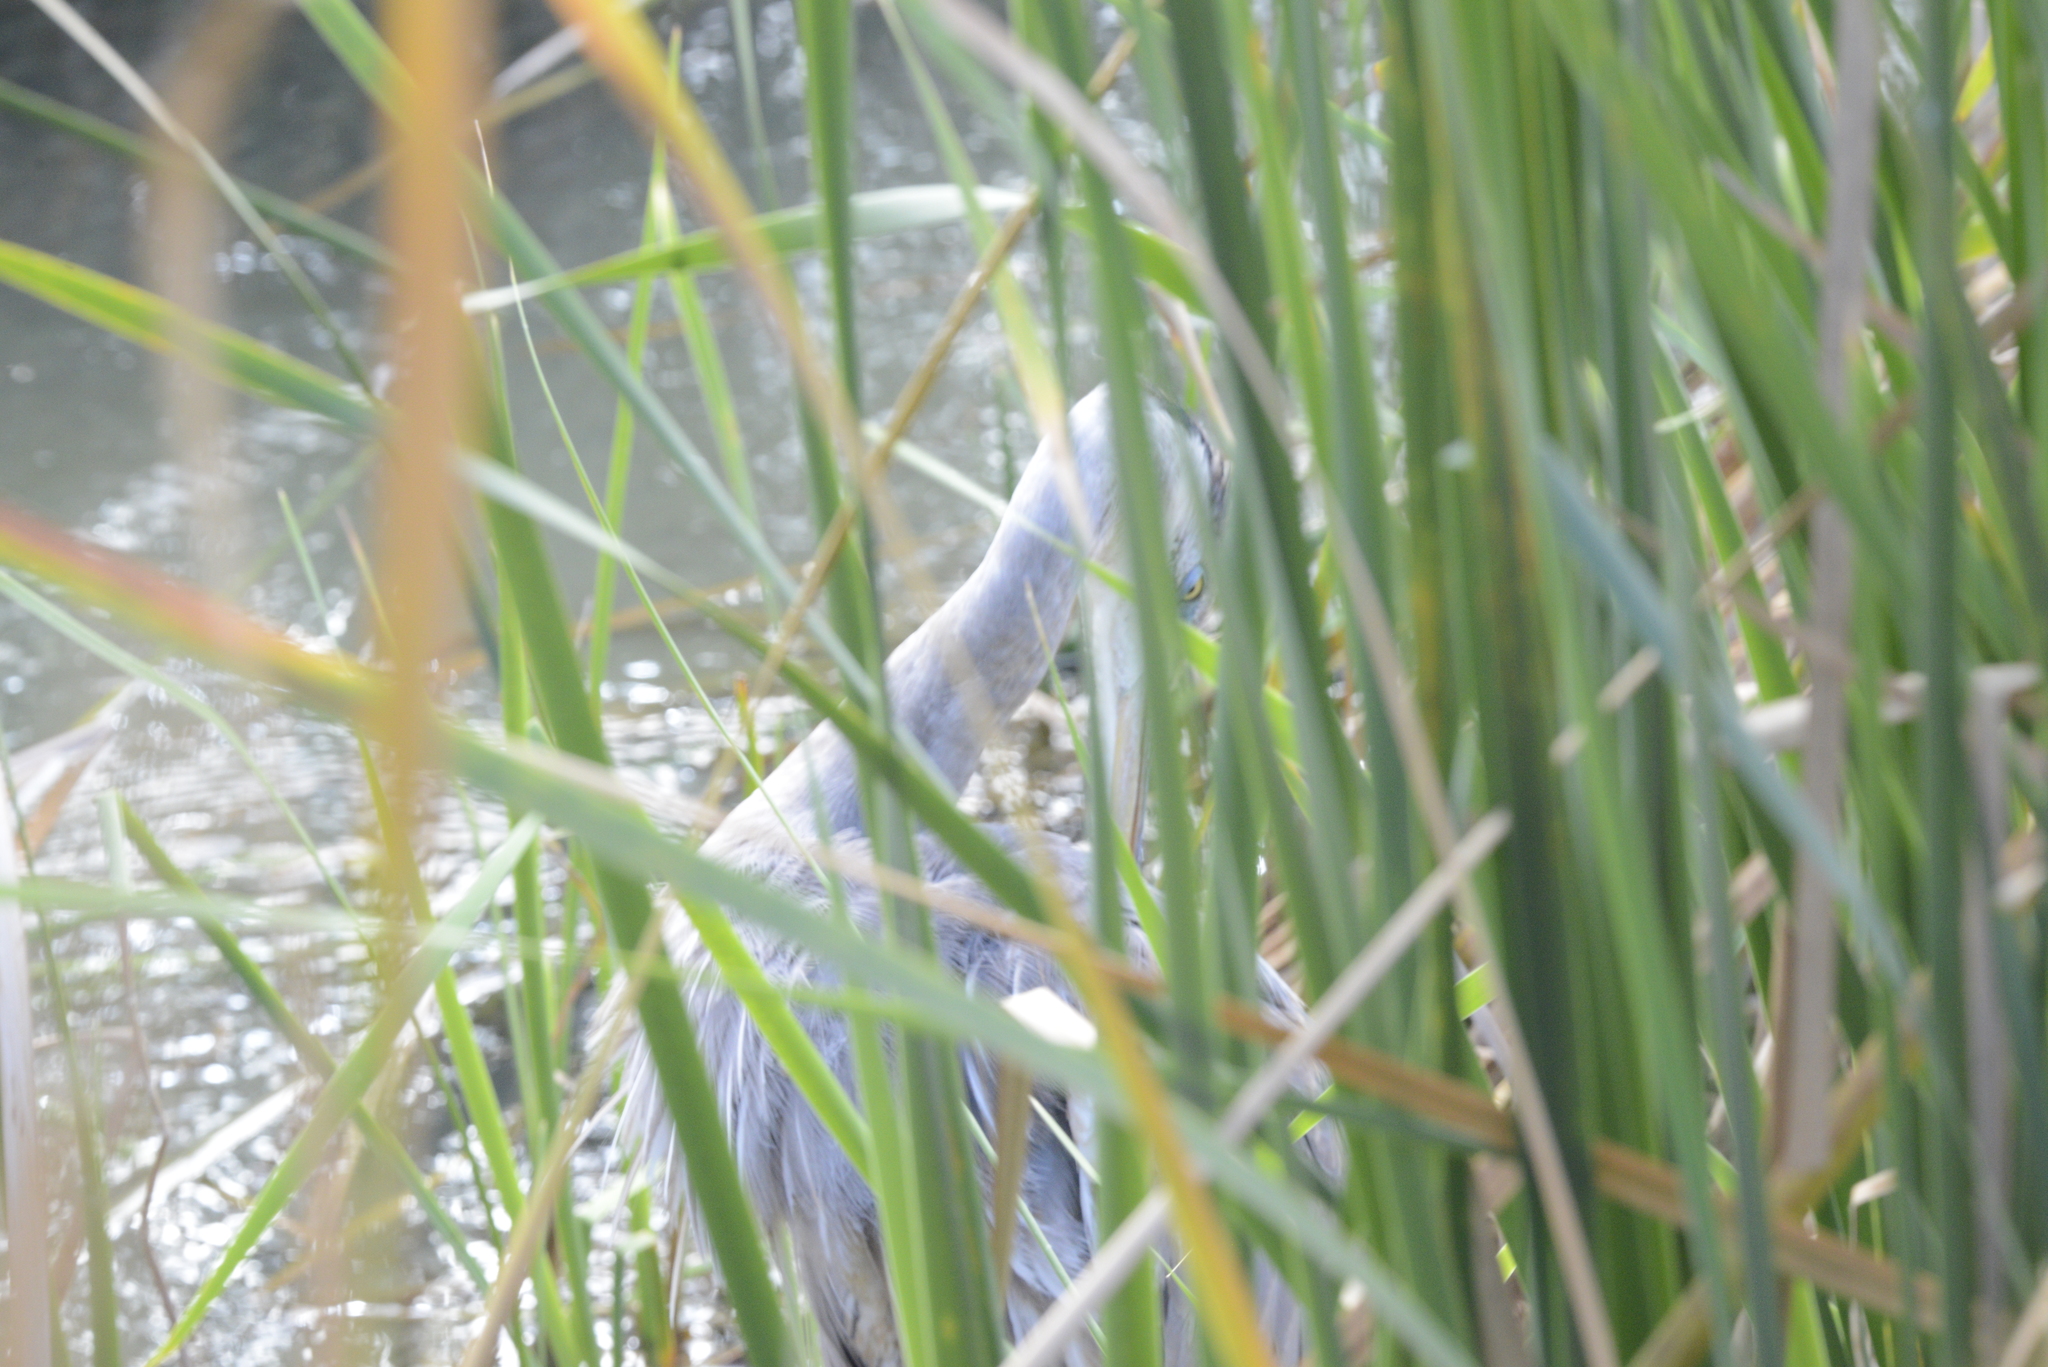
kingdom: Animalia
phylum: Chordata
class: Aves
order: Pelecaniformes
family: Ardeidae
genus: Ardea
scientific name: Ardea herodias
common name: Great blue heron
